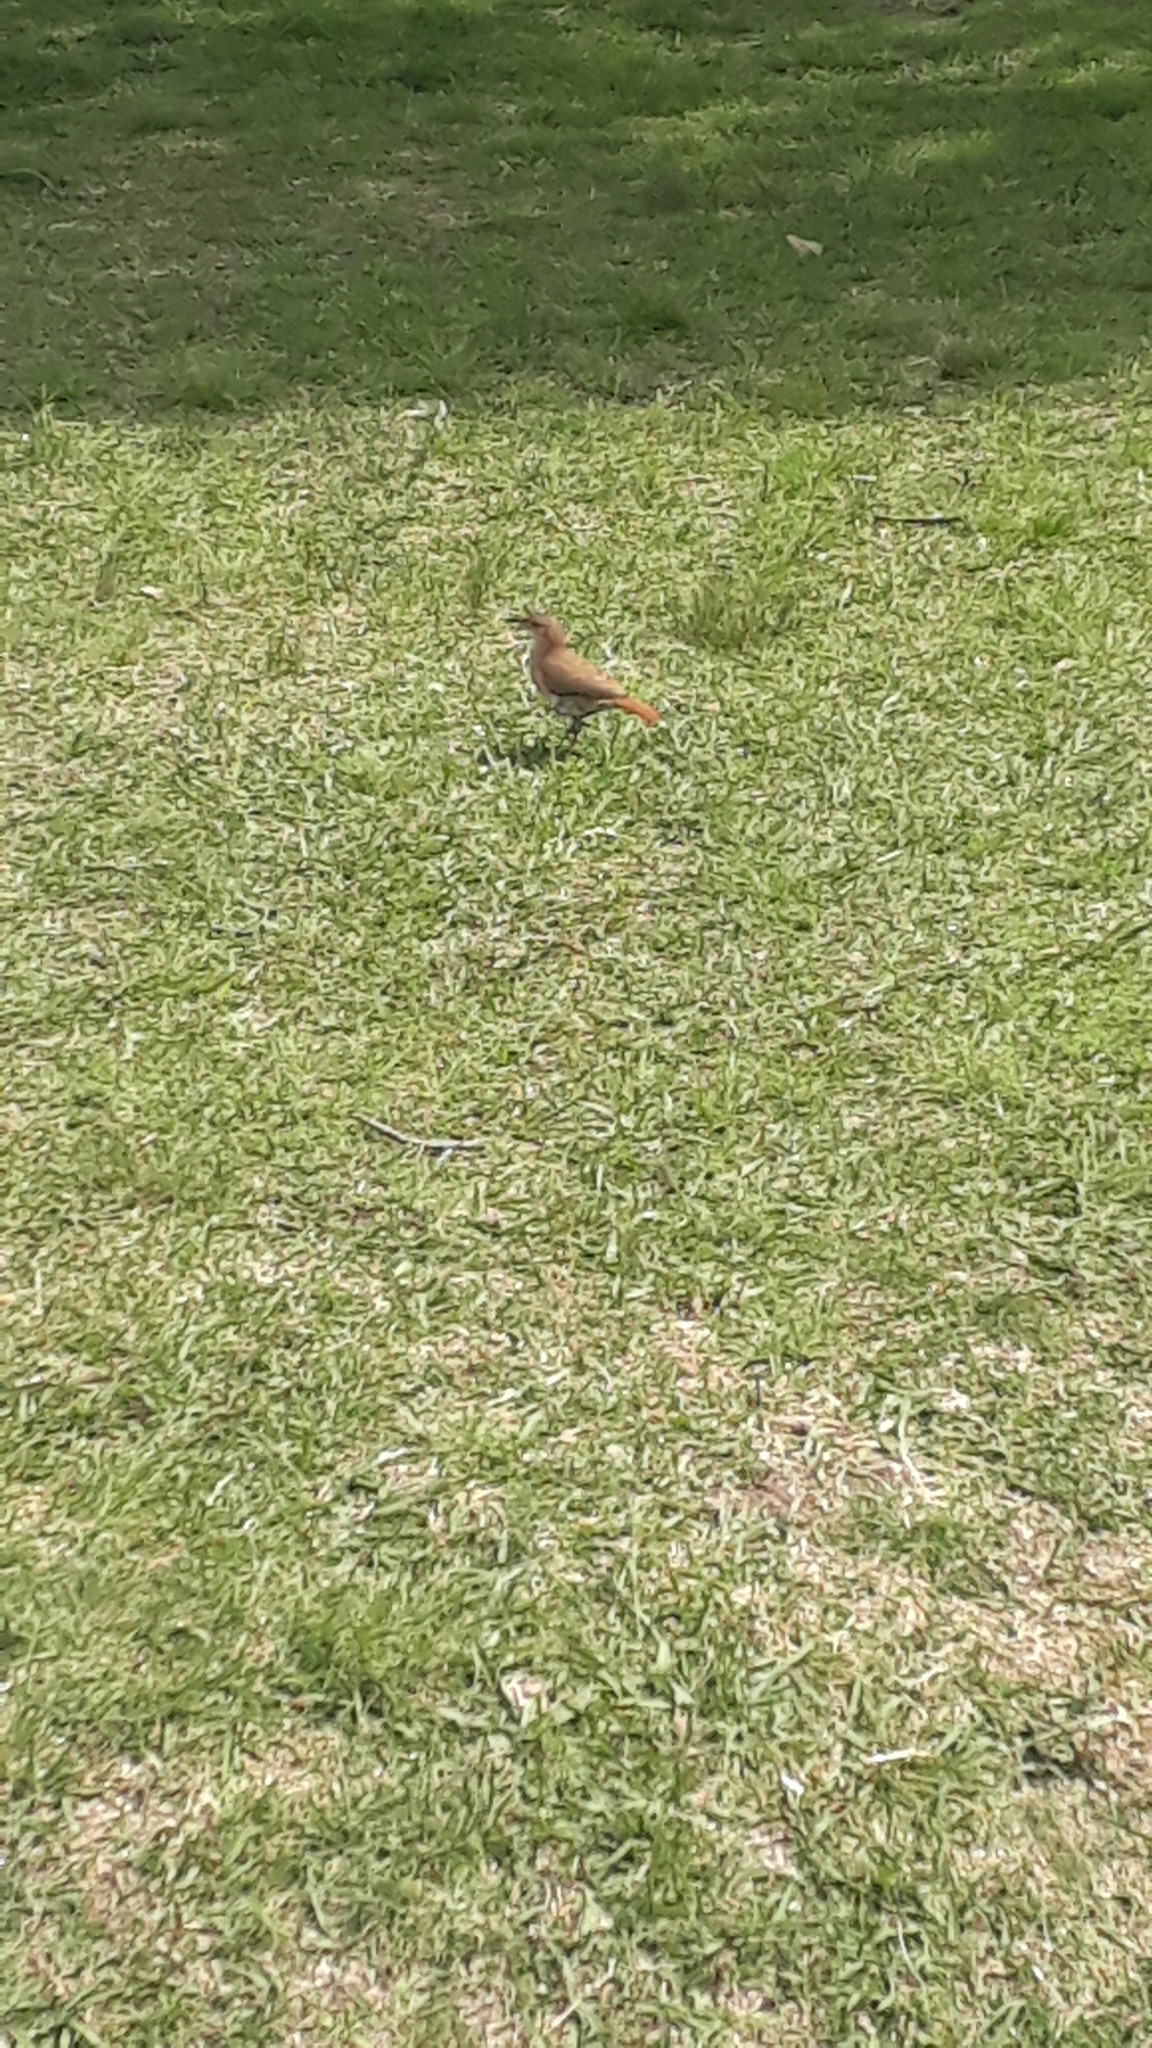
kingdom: Animalia
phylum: Chordata
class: Aves
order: Passeriformes
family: Furnariidae
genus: Furnarius
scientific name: Furnarius rufus
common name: Rufous hornero
